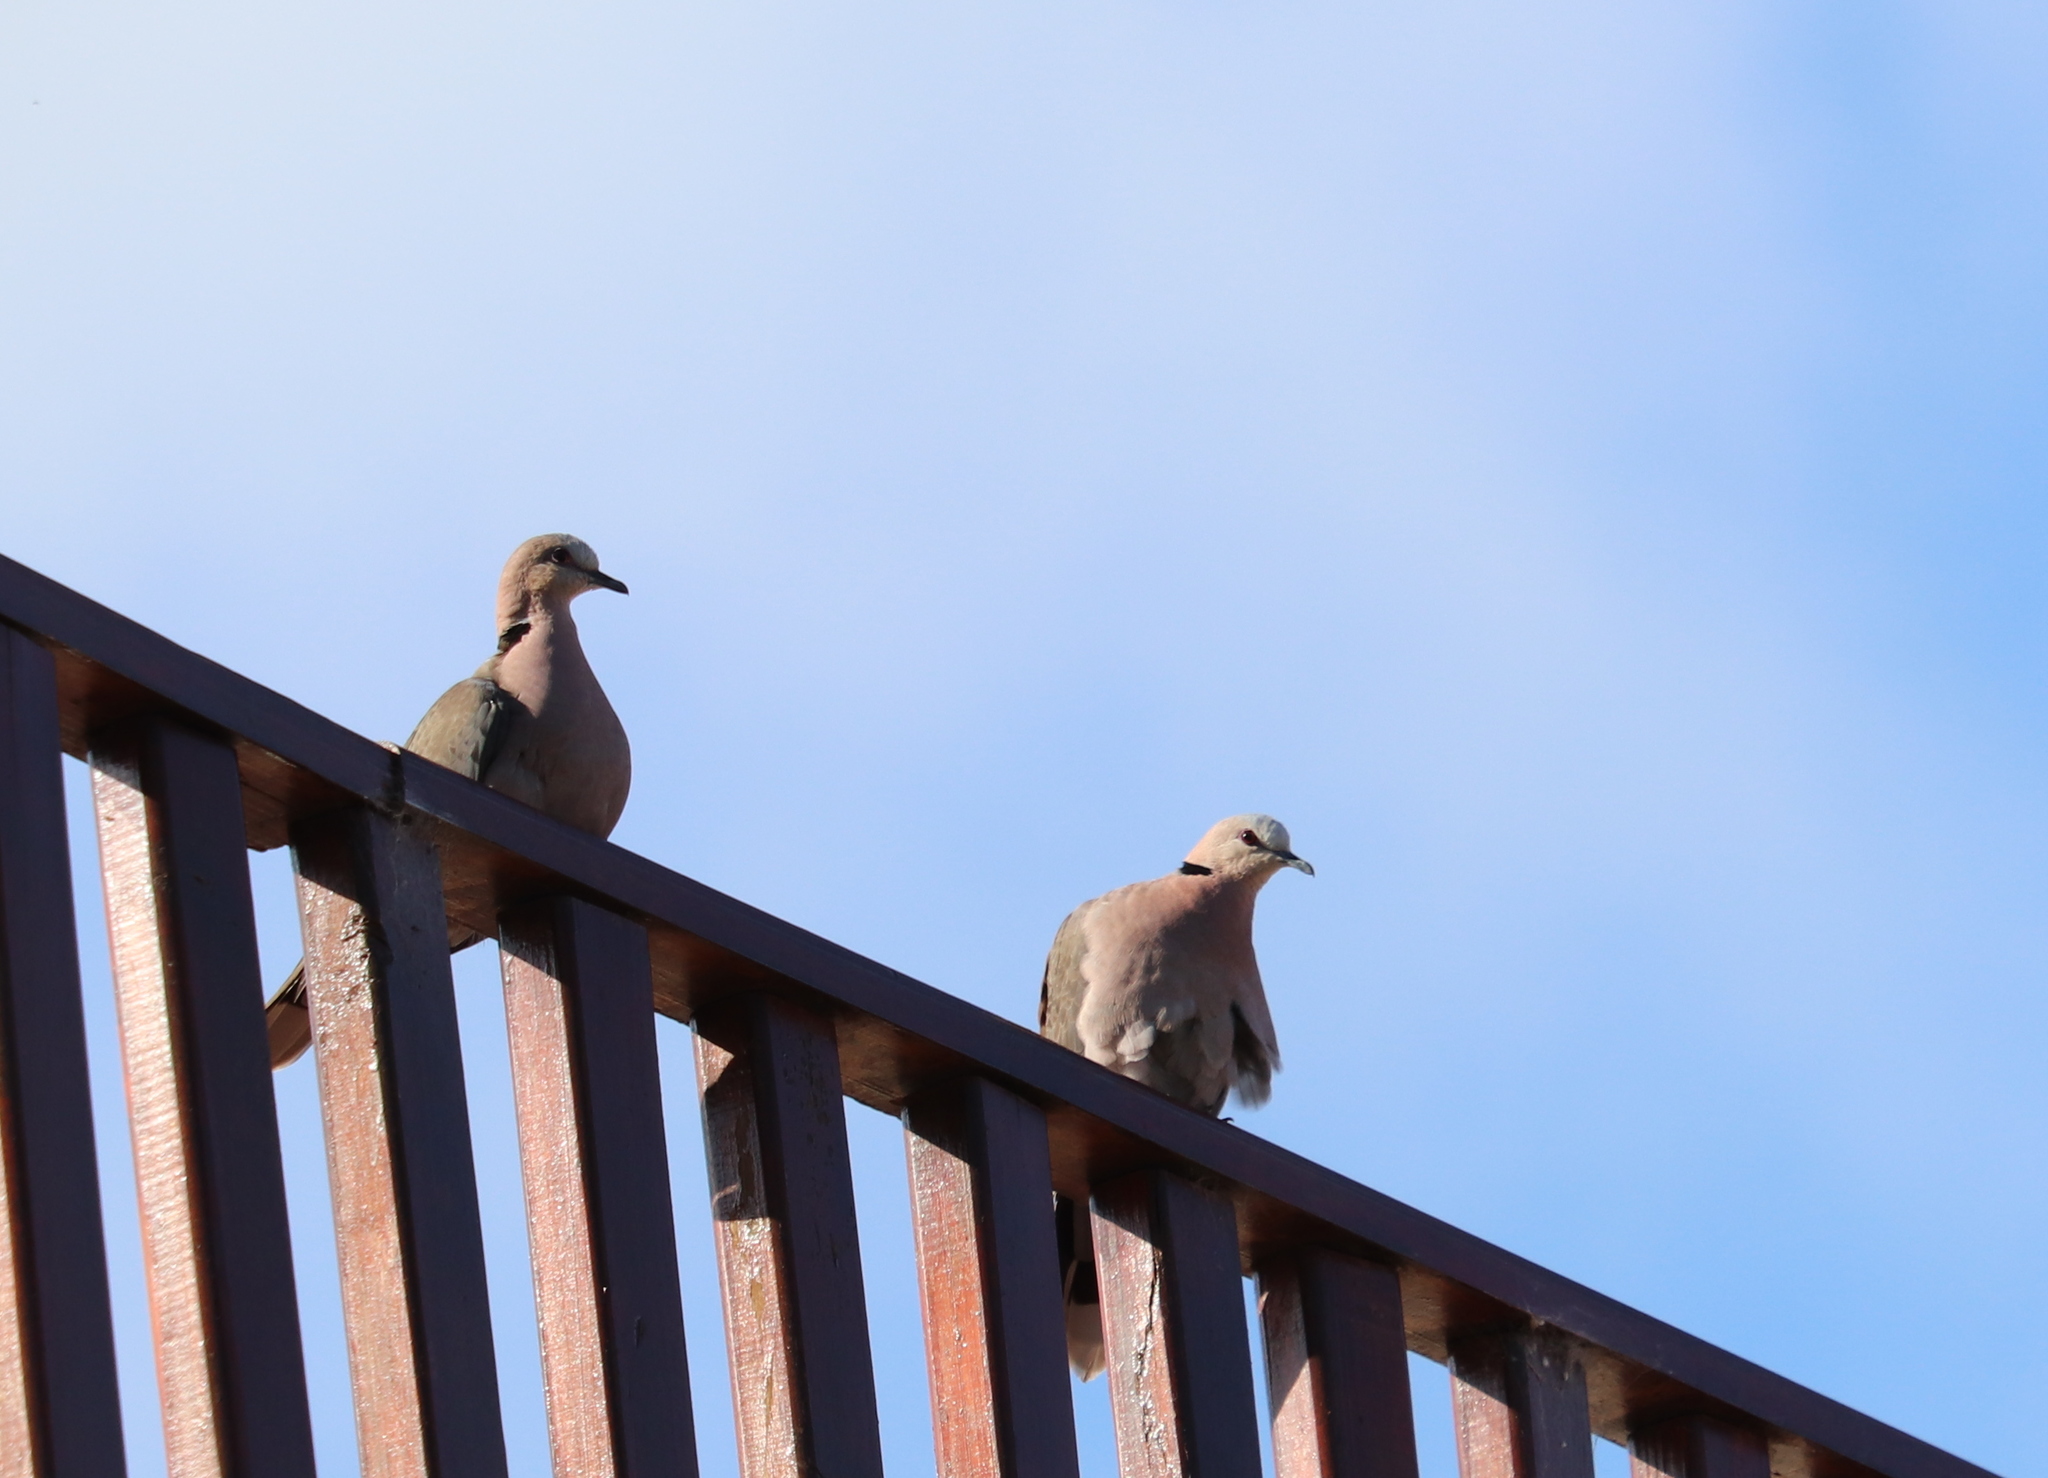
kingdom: Animalia
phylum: Chordata
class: Aves
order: Columbiformes
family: Columbidae
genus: Streptopelia
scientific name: Streptopelia semitorquata
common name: Red-eyed dove
